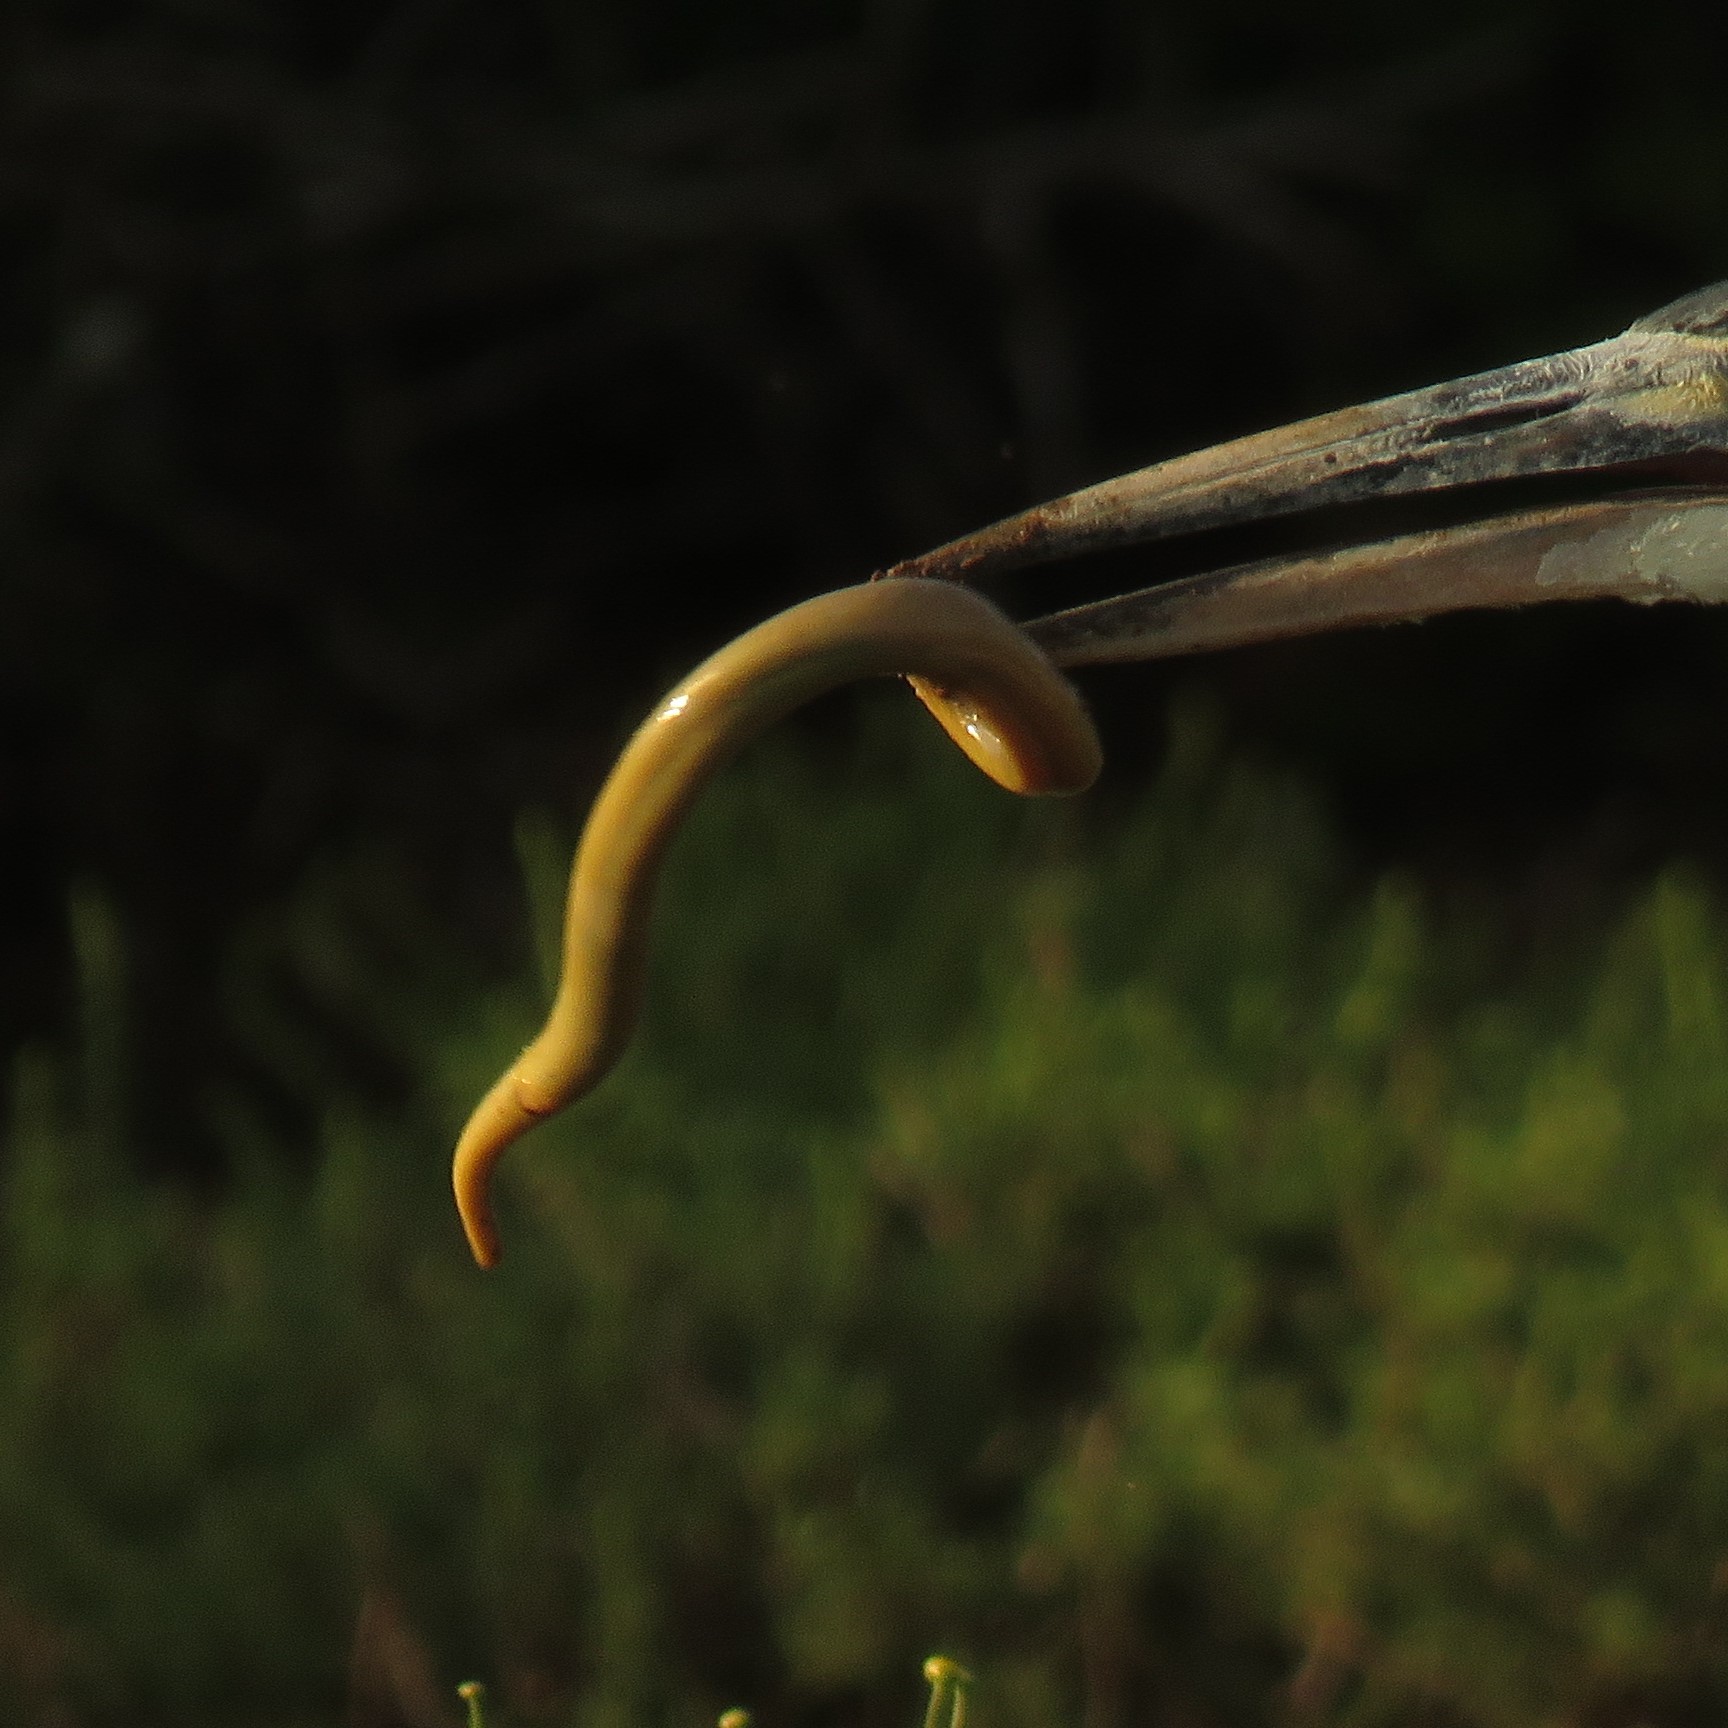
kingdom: Animalia
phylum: Chordata
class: Squamata
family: Scincidae
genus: Acontias
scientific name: Acontias orientalis
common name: Eastern cape legless skink
